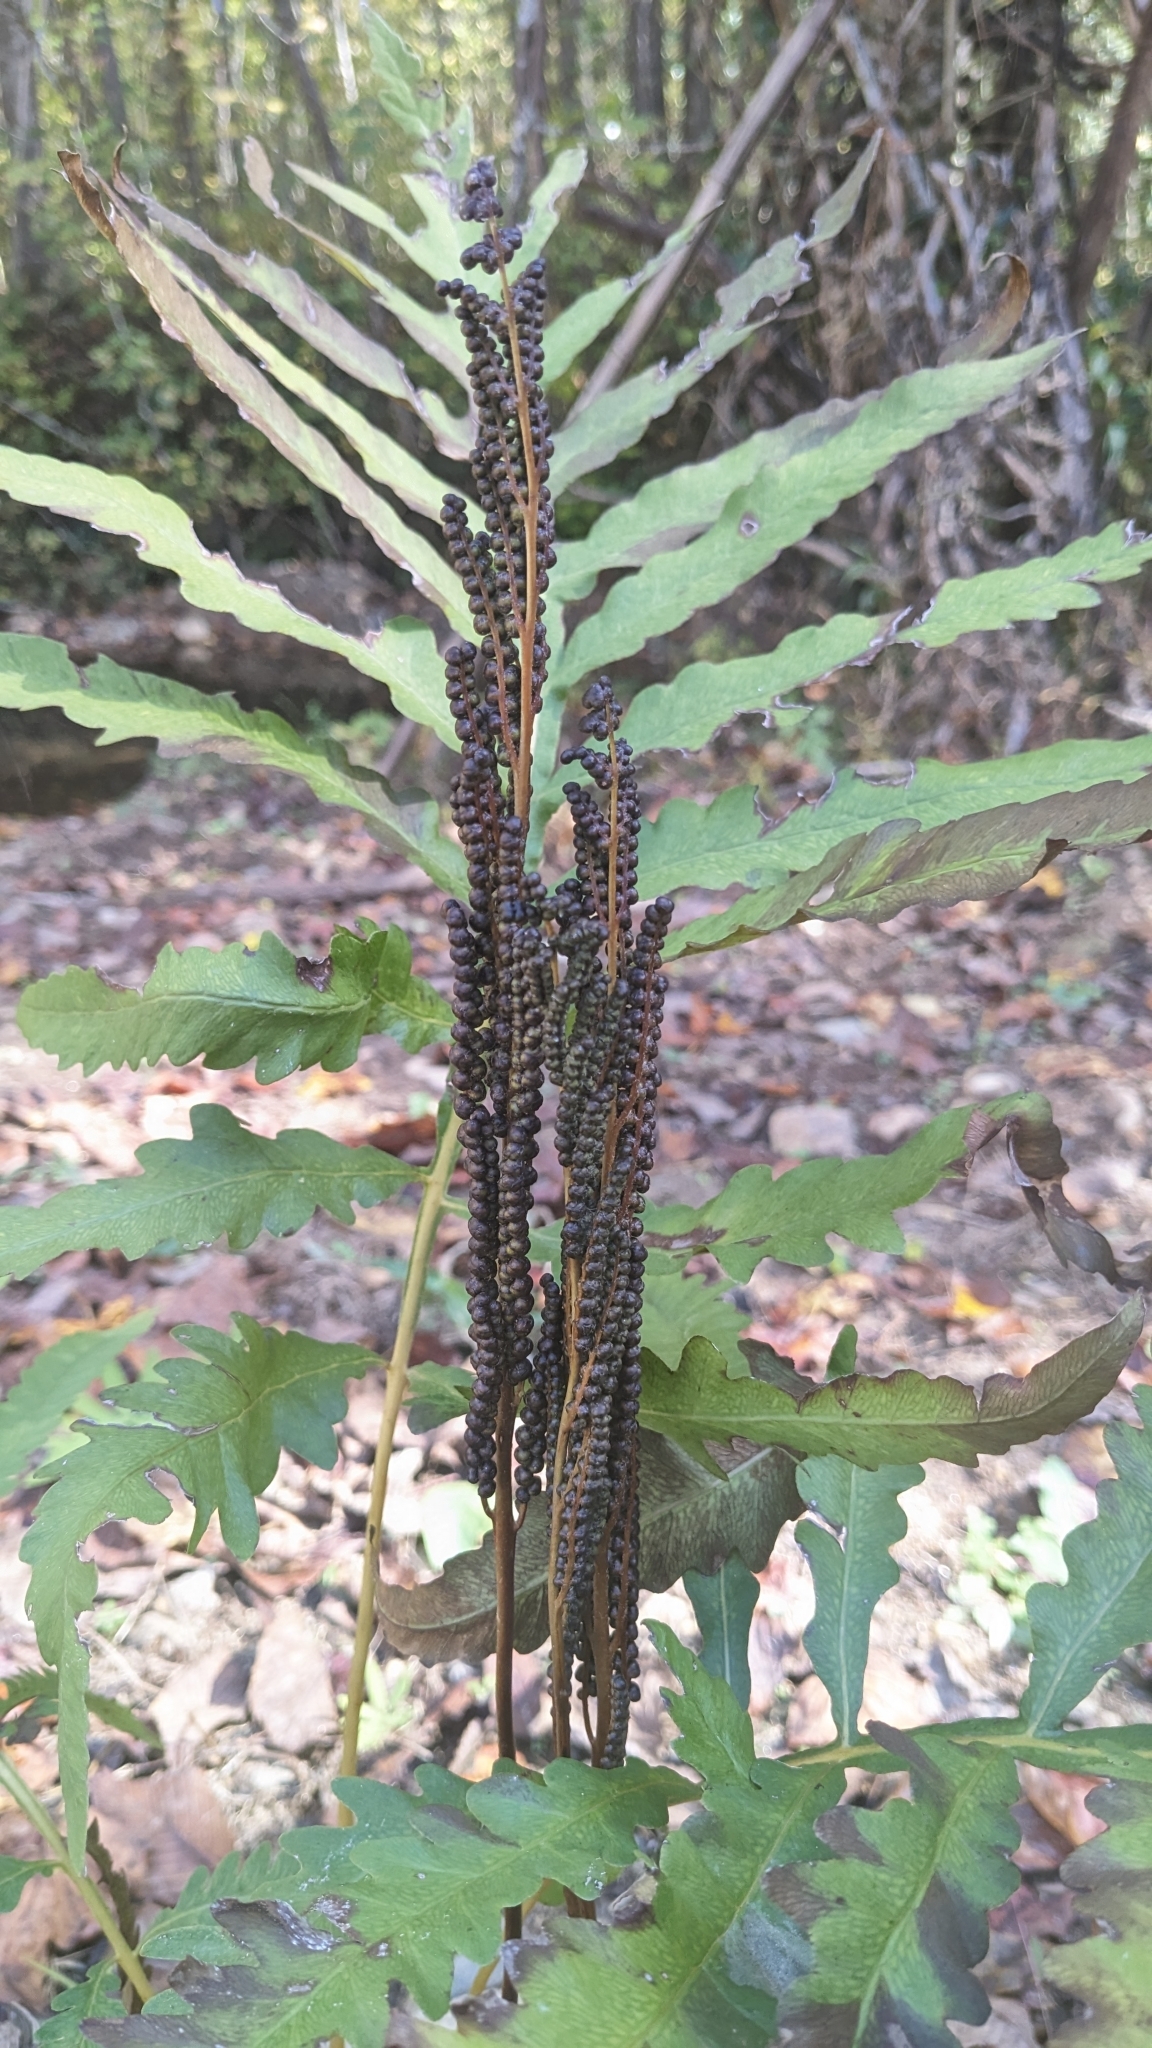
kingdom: Plantae
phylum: Tracheophyta
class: Polypodiopsida
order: Polypodiales
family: Onocleaceae
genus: Onoclea
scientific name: Onoclea sensibilis
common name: Sensitive fern
